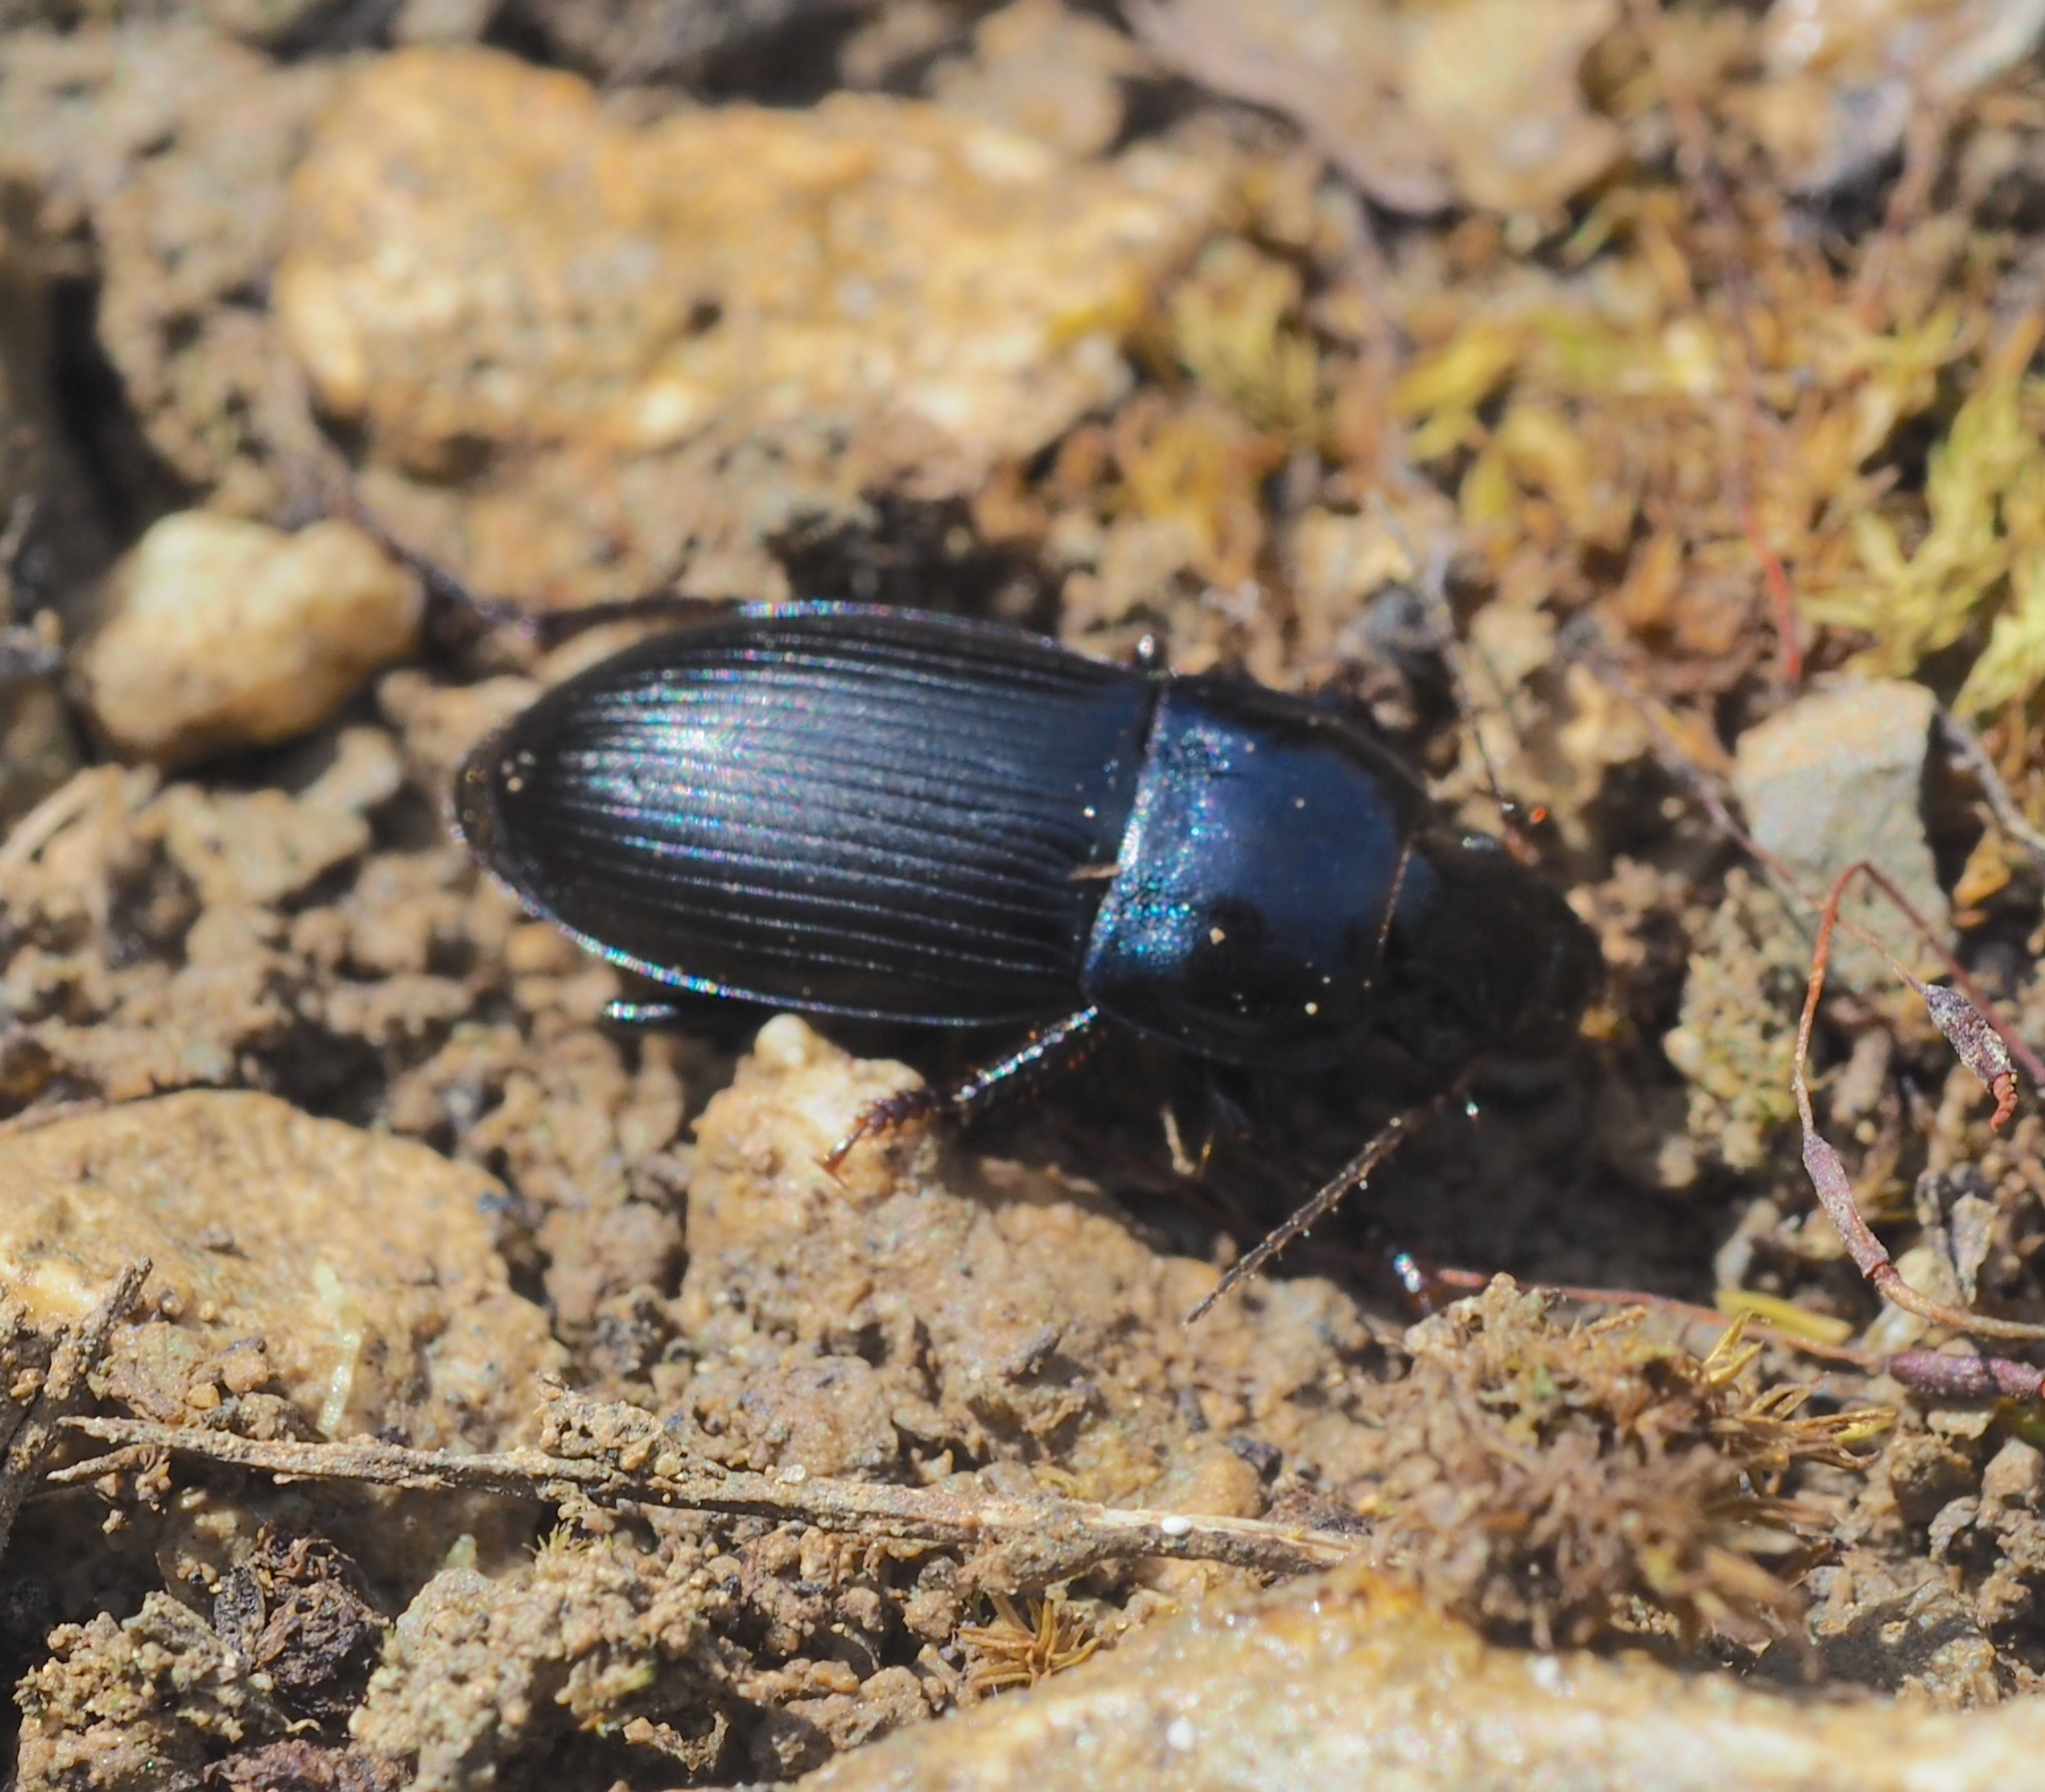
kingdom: Animalia
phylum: Arthropoda
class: Insecta
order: Coleoptera
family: Carabidae
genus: Harpalus
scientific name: Harpalus dimidiatus
